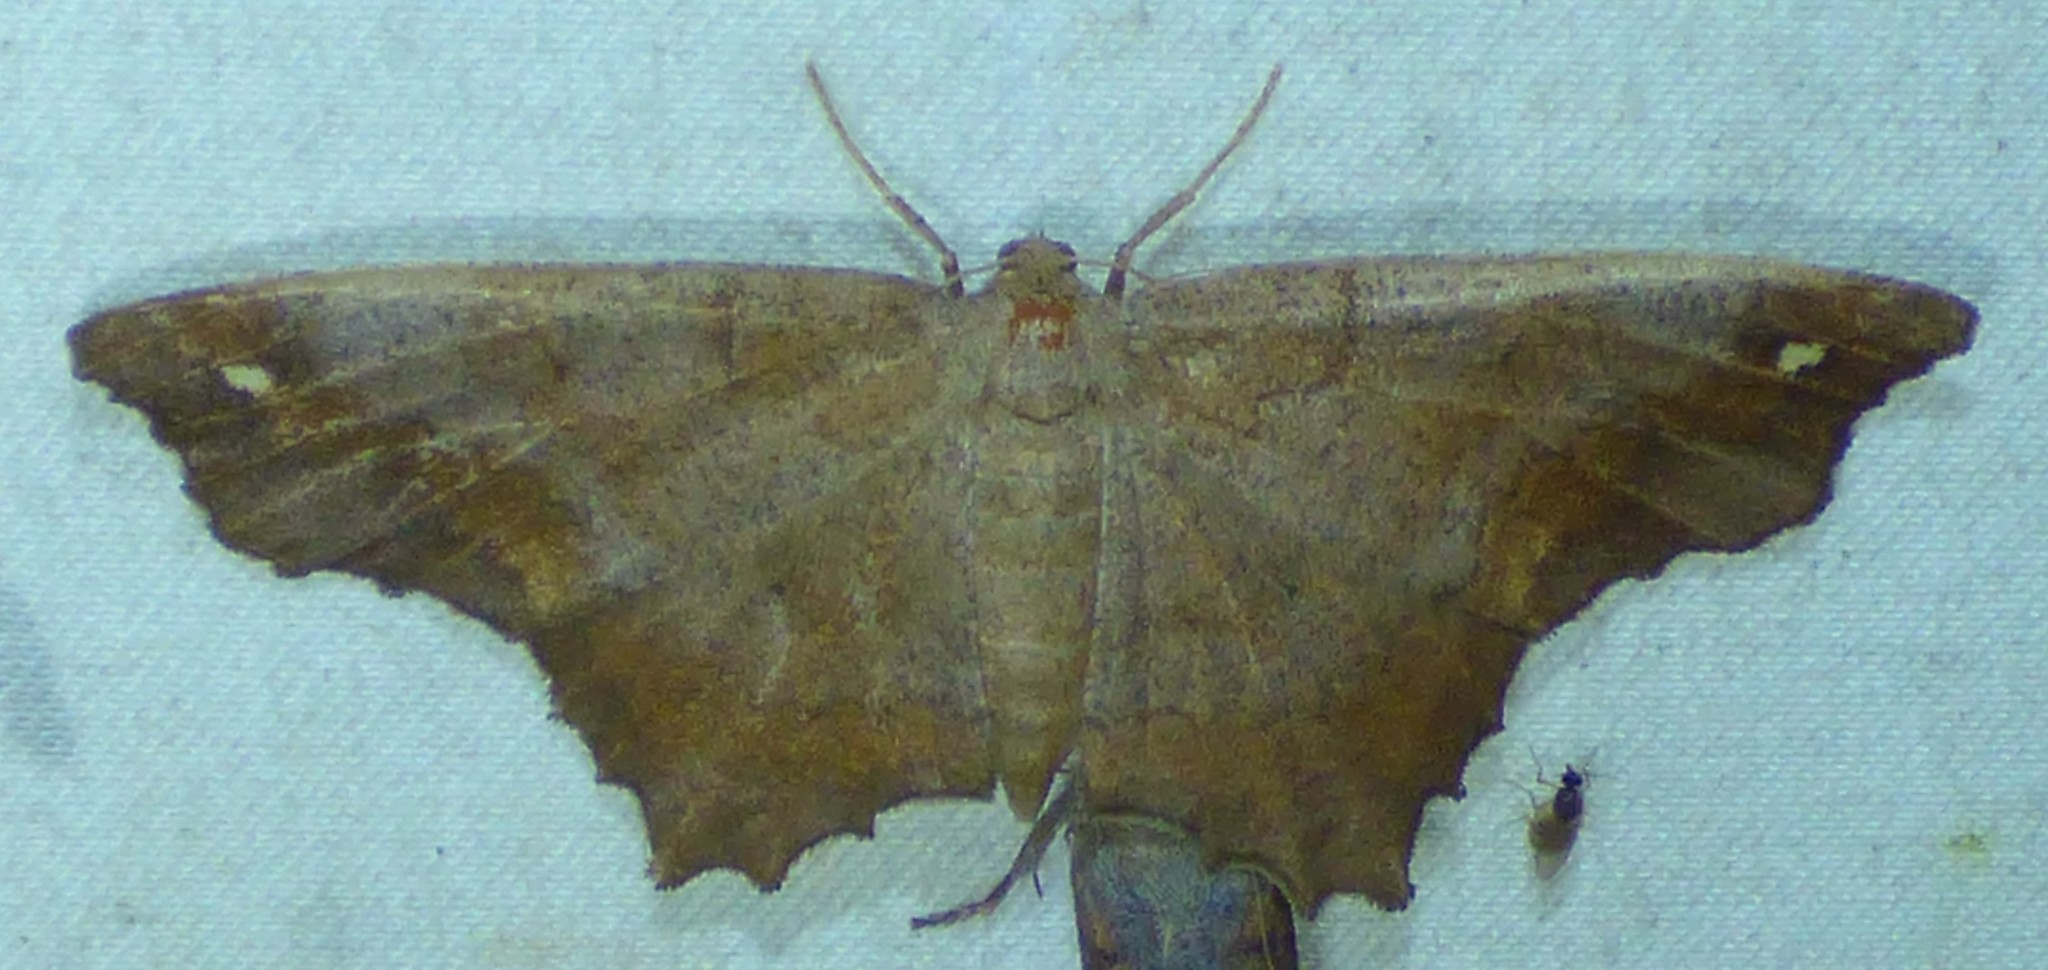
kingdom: Animalia
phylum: Arthropoda
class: Insecta
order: Lepidoptera
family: Geometridae
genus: Hypagyrtis
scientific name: Hypagyrtis esther
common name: Esther moth
